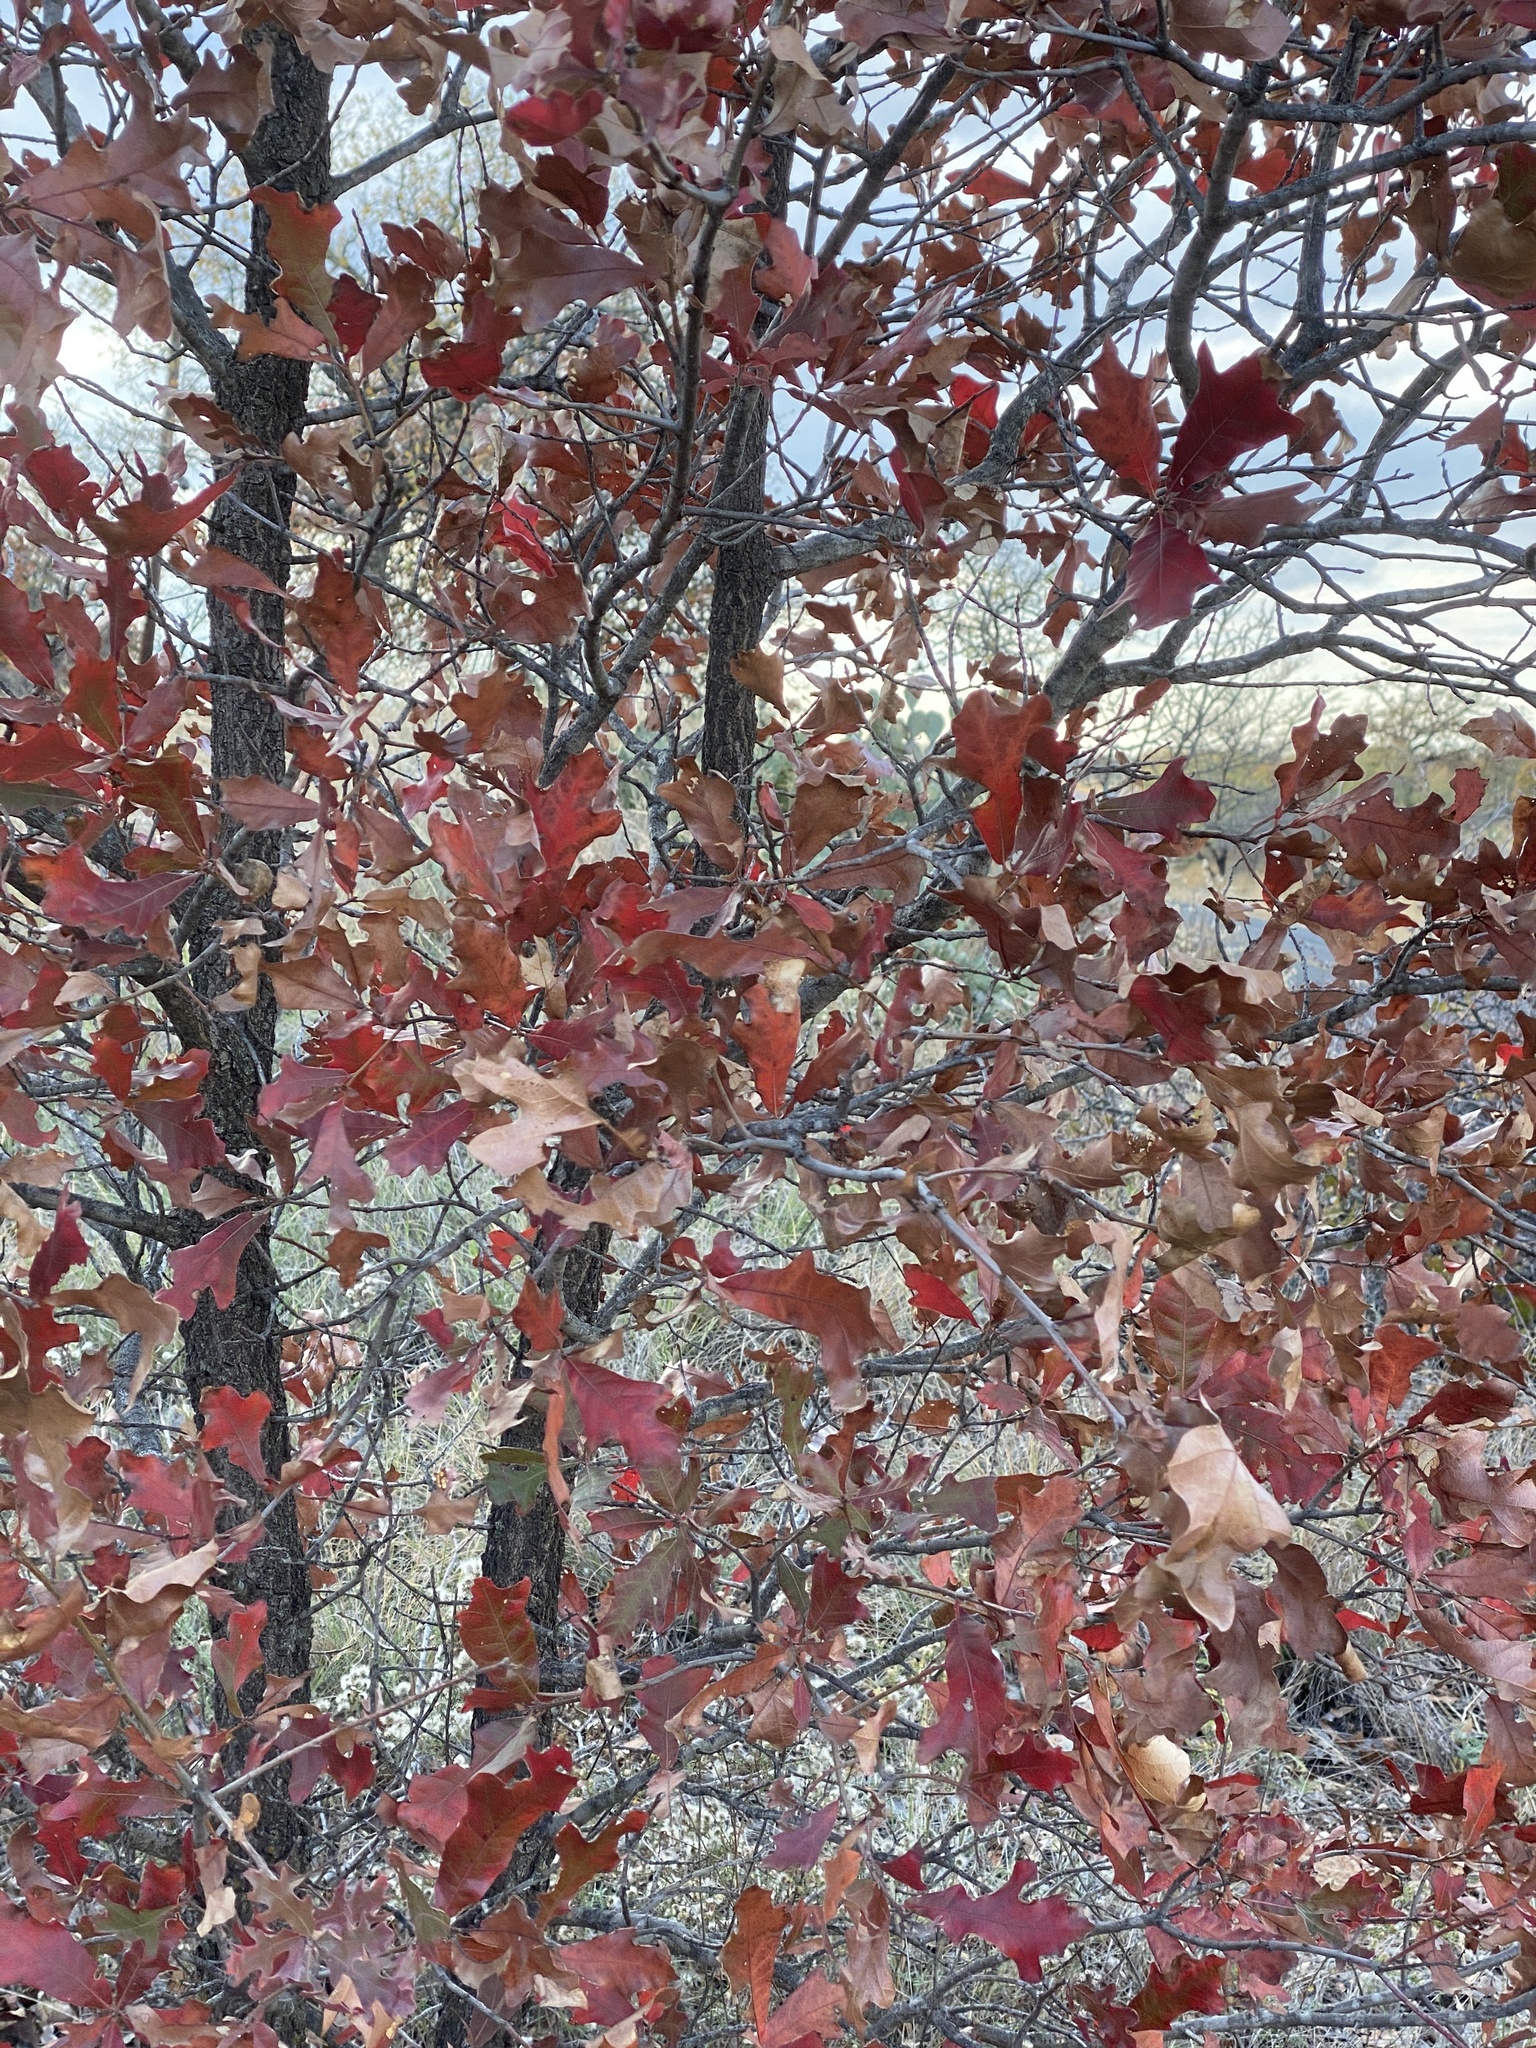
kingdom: Plantae
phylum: Tracheophyta
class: Magnoliopsida
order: Fagales
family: Fagaceae
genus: Quercus
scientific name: Quercus marilandica
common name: Blackjack oak
